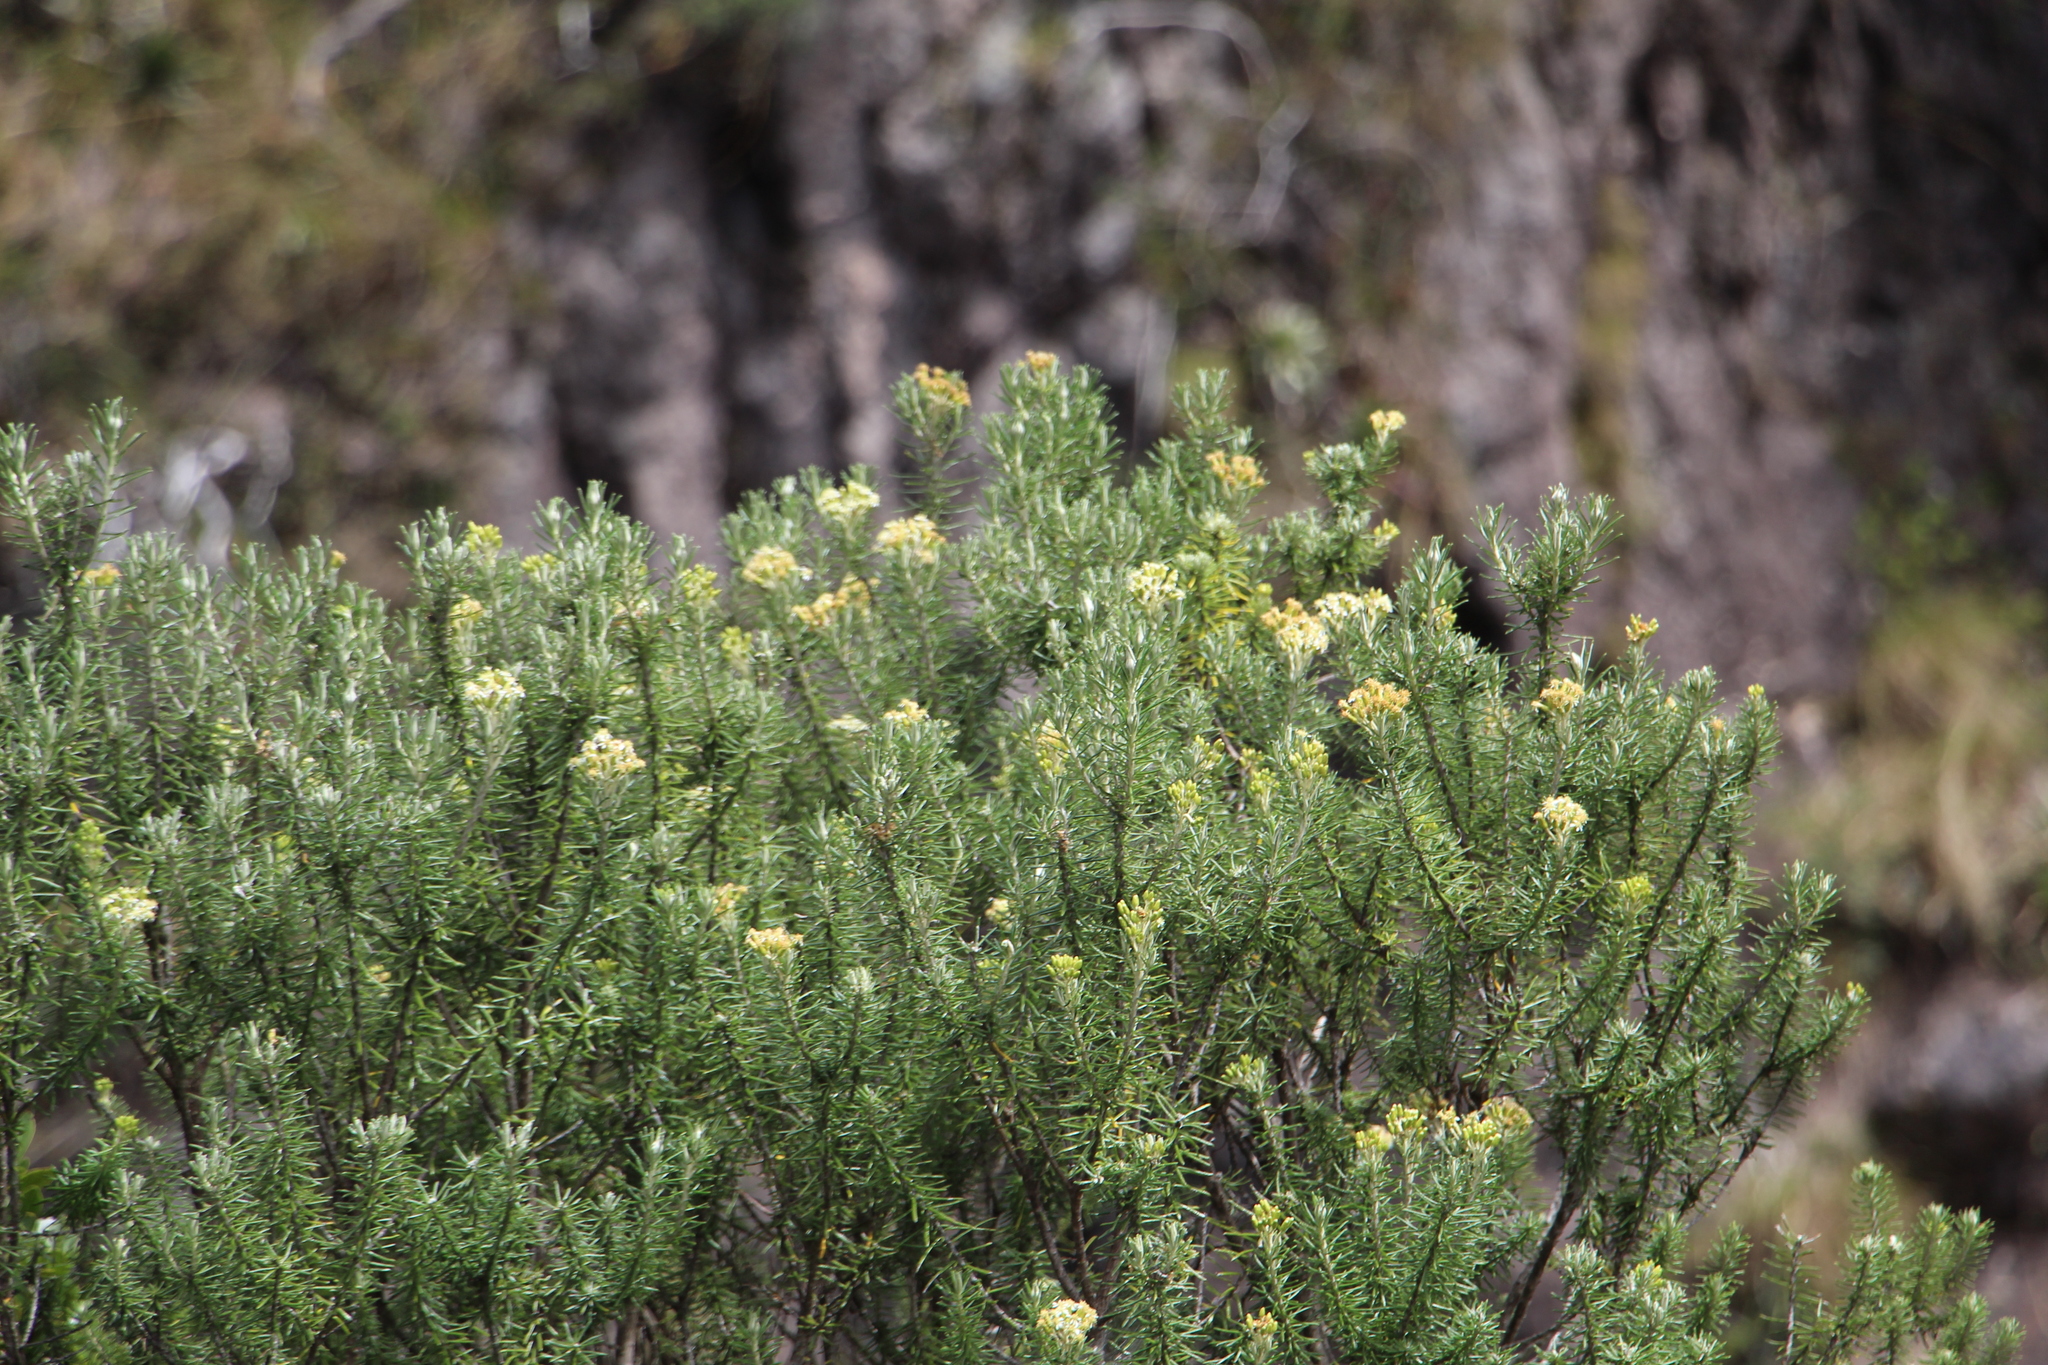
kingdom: Plantae
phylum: Tracheophyta
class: Magnoliopsida
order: Asterales
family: Asteraceae
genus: Linochilus
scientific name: Linochilus rosmarinifolius
